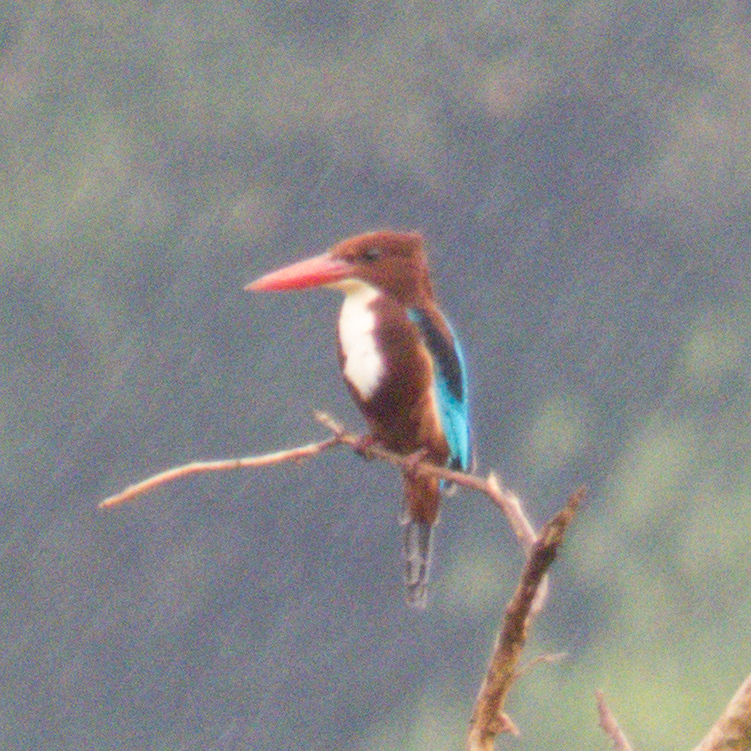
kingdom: Animalia
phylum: Chordata
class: Aves
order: Coraciiformes
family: Alcedinidae
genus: Halcyon
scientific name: Halcyon smyrnensis
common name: White-throated kingfisher
